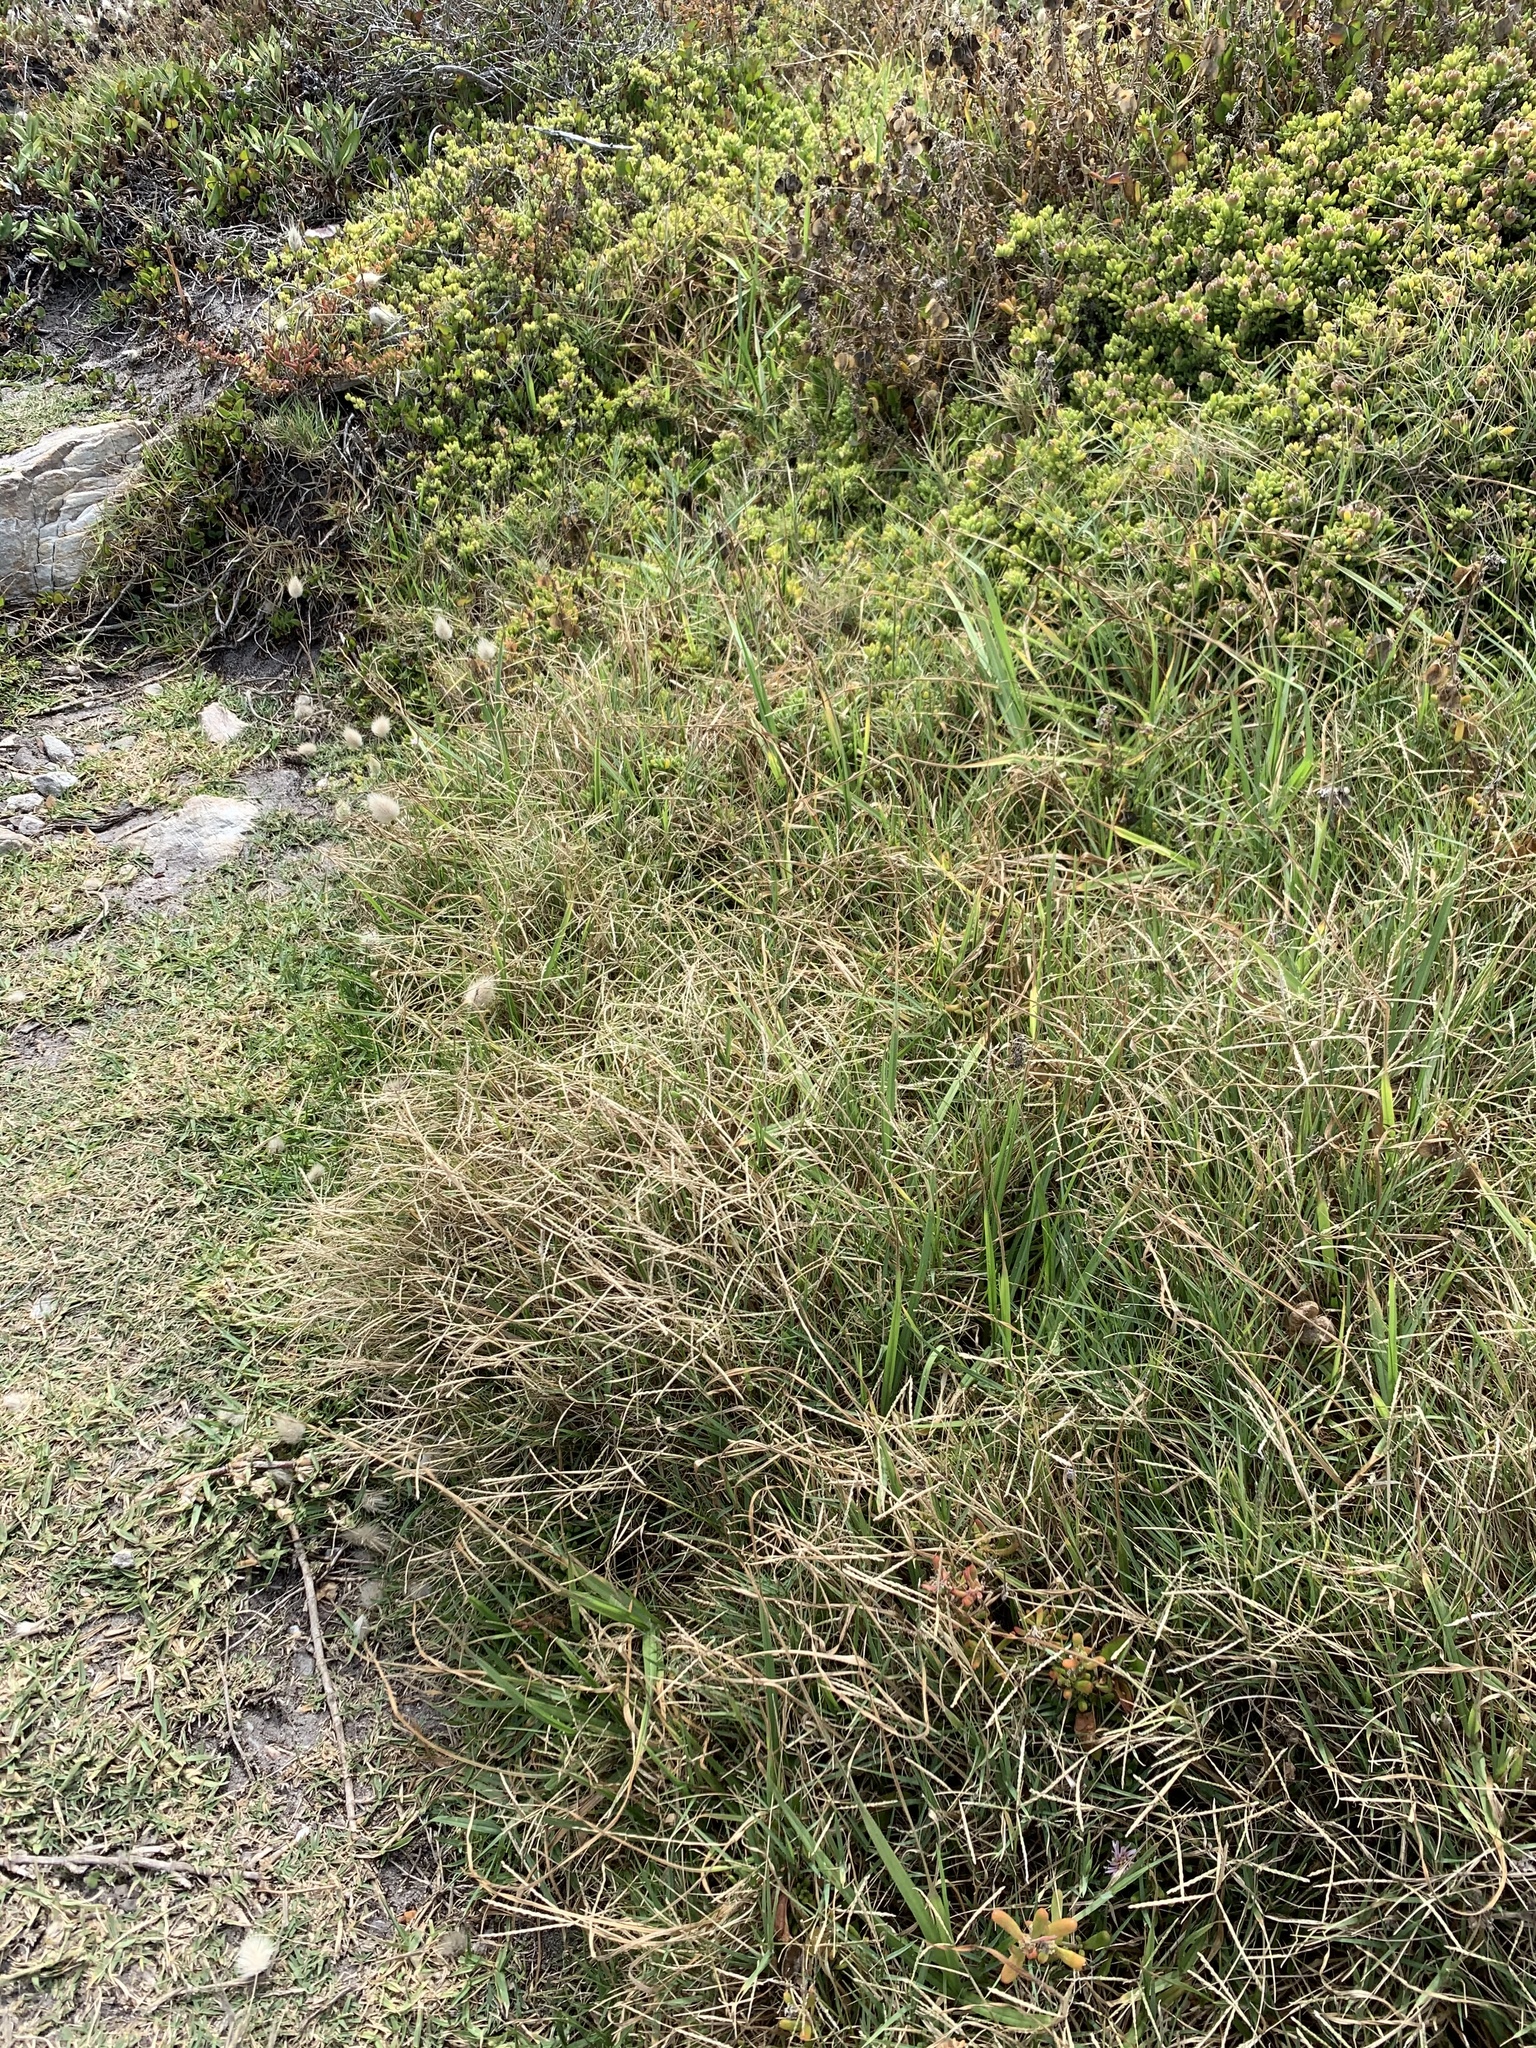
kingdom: Plantae
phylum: Tracheophyta
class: Liliopsida
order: Poales
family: Poaceae
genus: Cynodon
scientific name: Cynodon dactylon
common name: Bermuda grass
